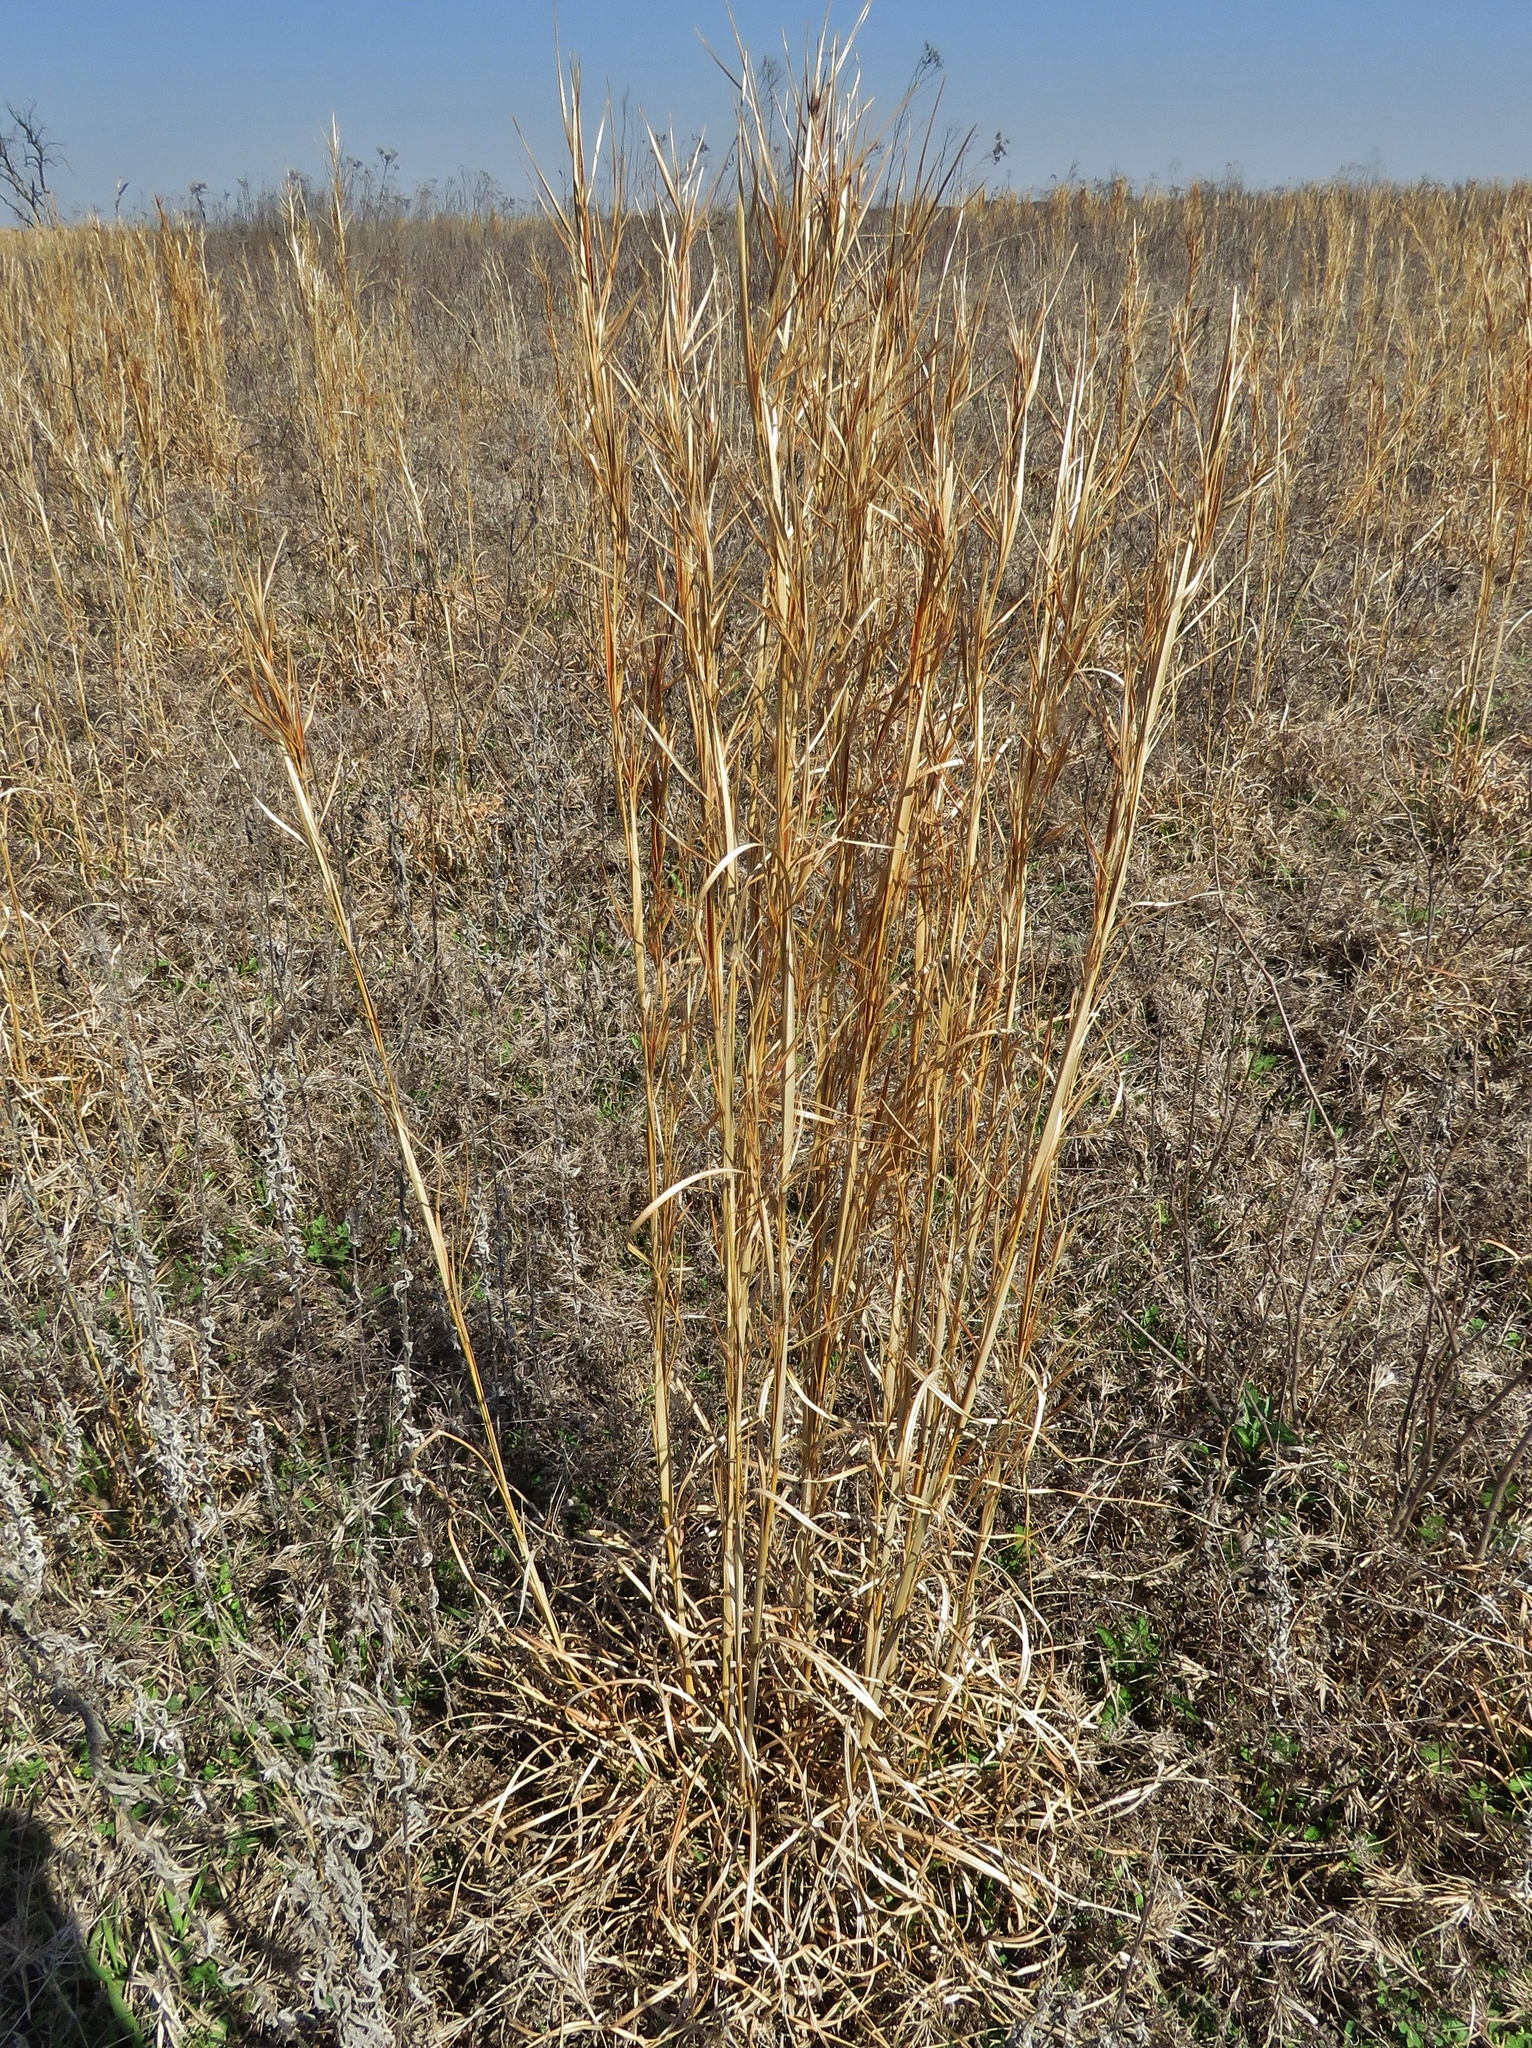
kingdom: Plantae
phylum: Tracheophyta
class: Liliopsida
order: Poales
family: Poaceae
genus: Andropogon
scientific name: Andropogon virginicus
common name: Broomsedge bluestem
